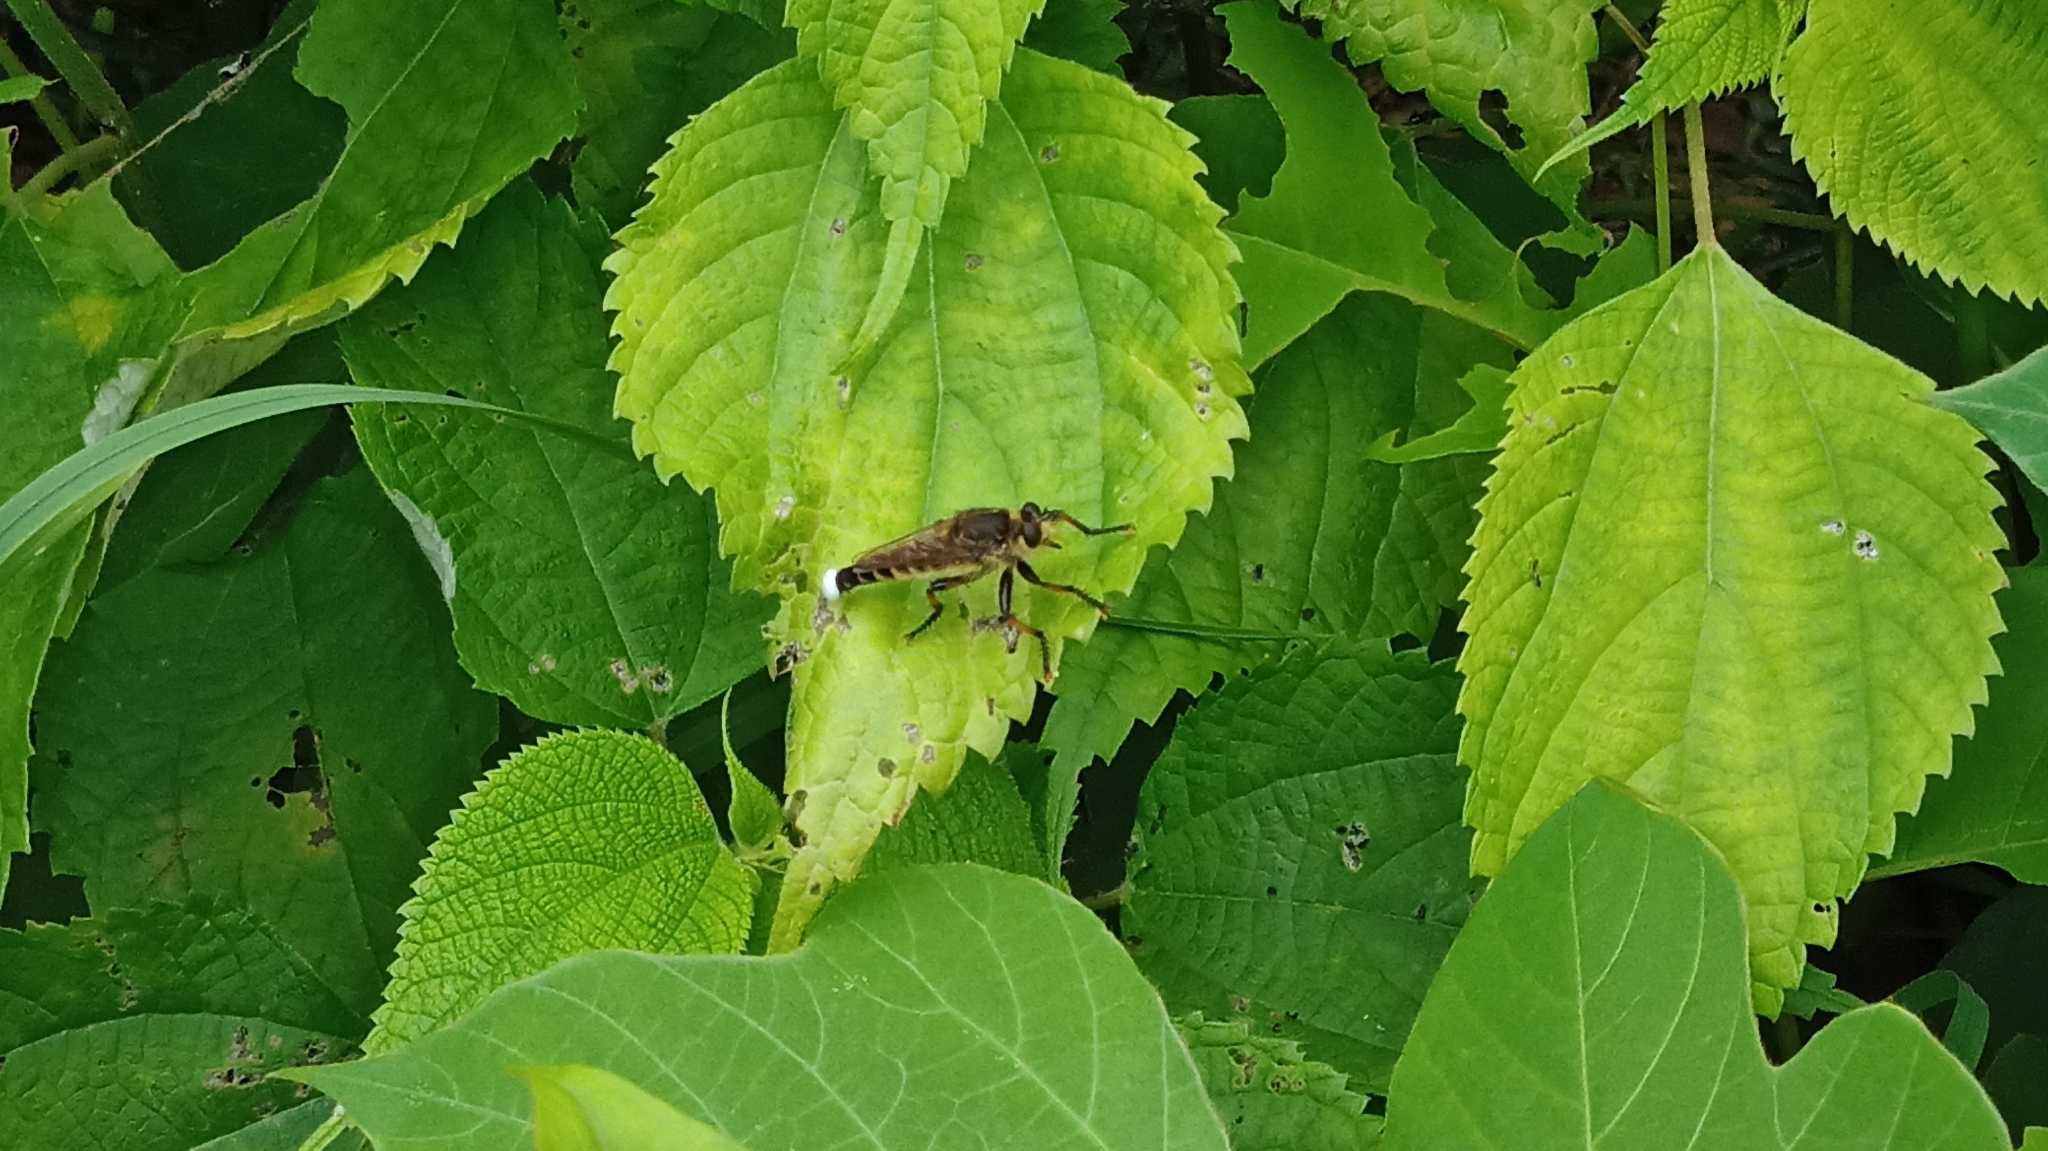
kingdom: Animalia
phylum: Arthropoda
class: Insecta
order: Diptera
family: Asilidae
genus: Promachus
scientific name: Promachus yesonicus
